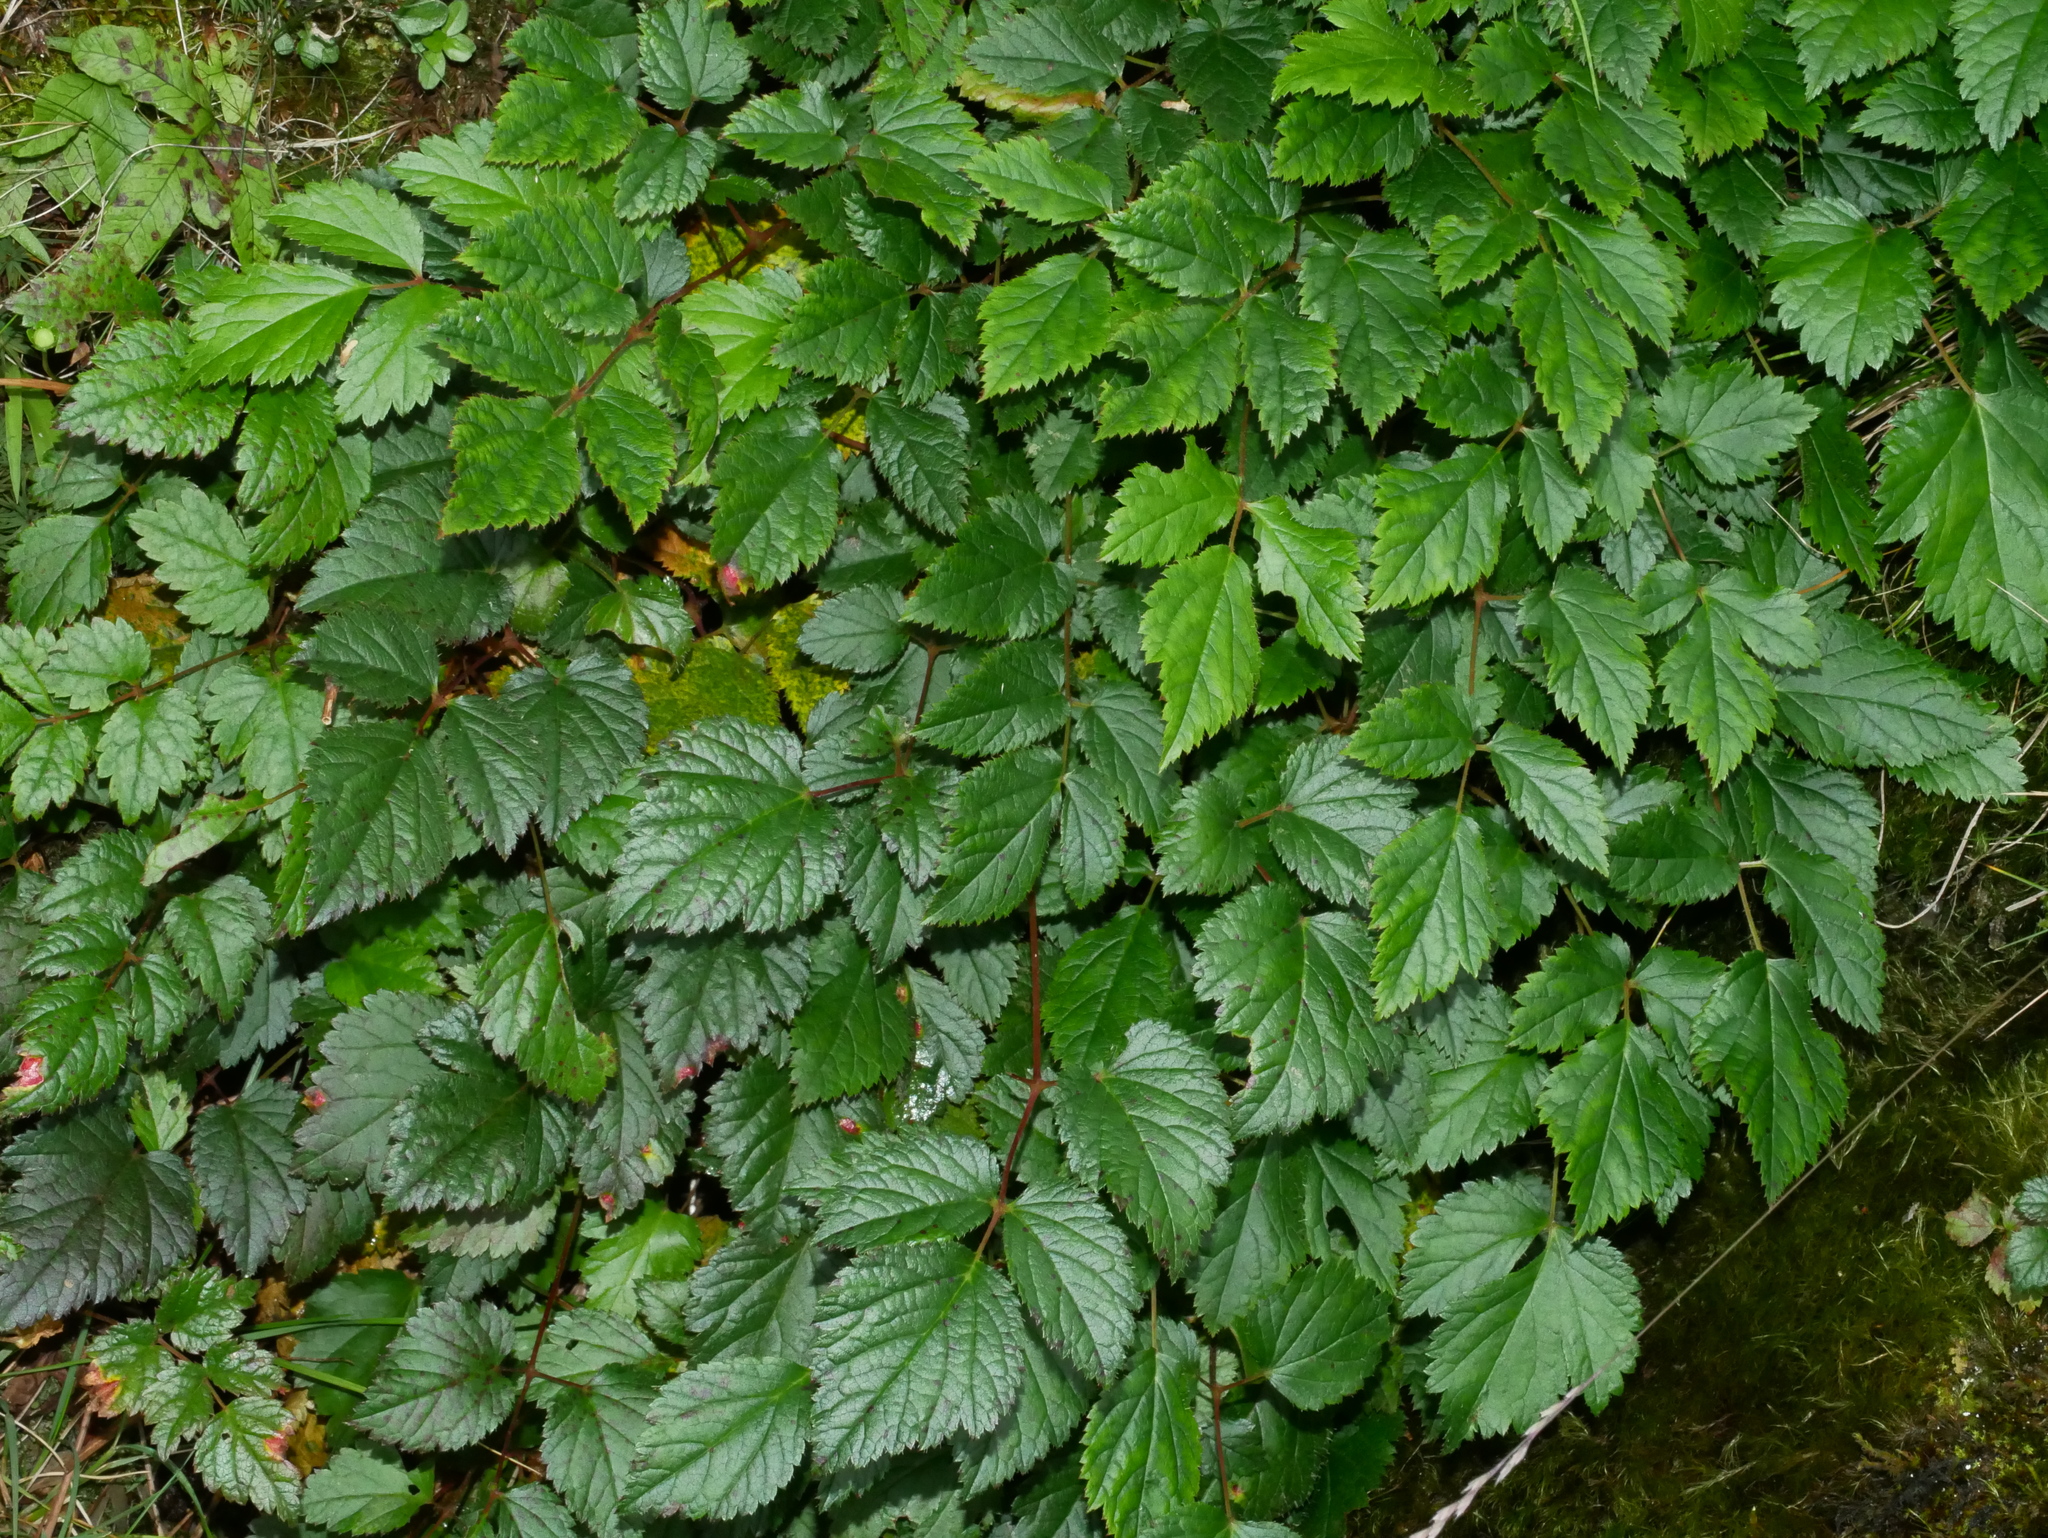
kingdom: Plantae
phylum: Tracheophyta
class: Magnoliopsida
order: Saxifragales
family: Saxifragaceae
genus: Astilbe
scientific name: Astilbe macroflora
